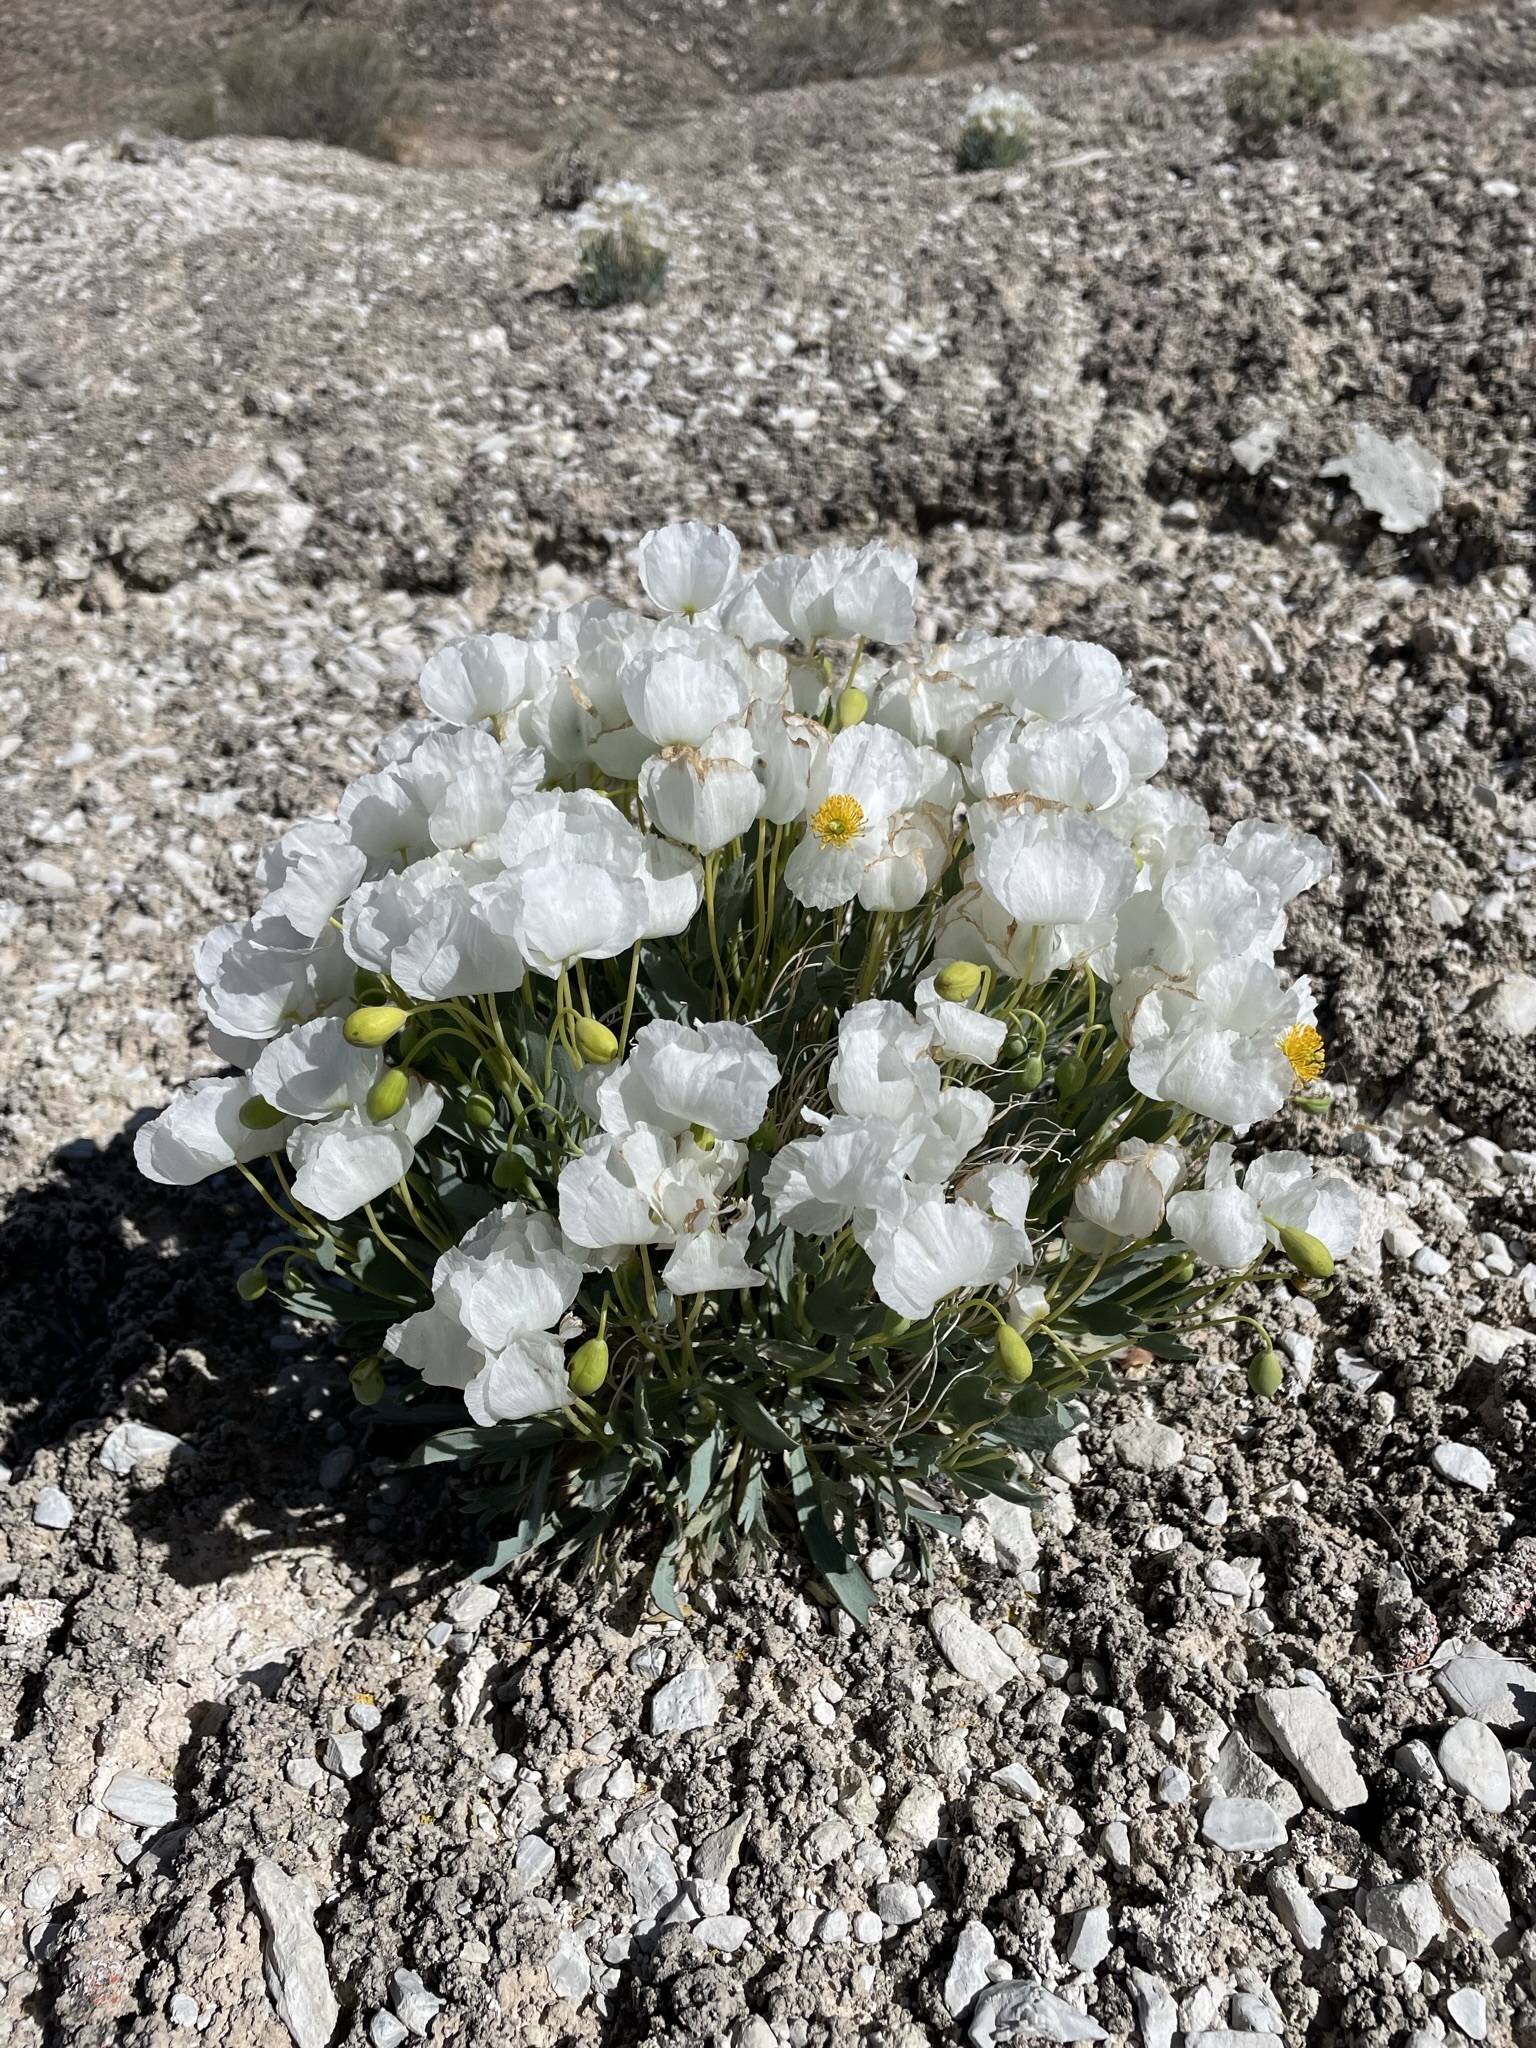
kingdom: Plantae
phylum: Tracheophyta
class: Magnoliopsida
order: Ranunculales
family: Papaveraceae
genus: Arctomecon
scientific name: Arctomecon humilis
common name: Dwarf bear-poppy
